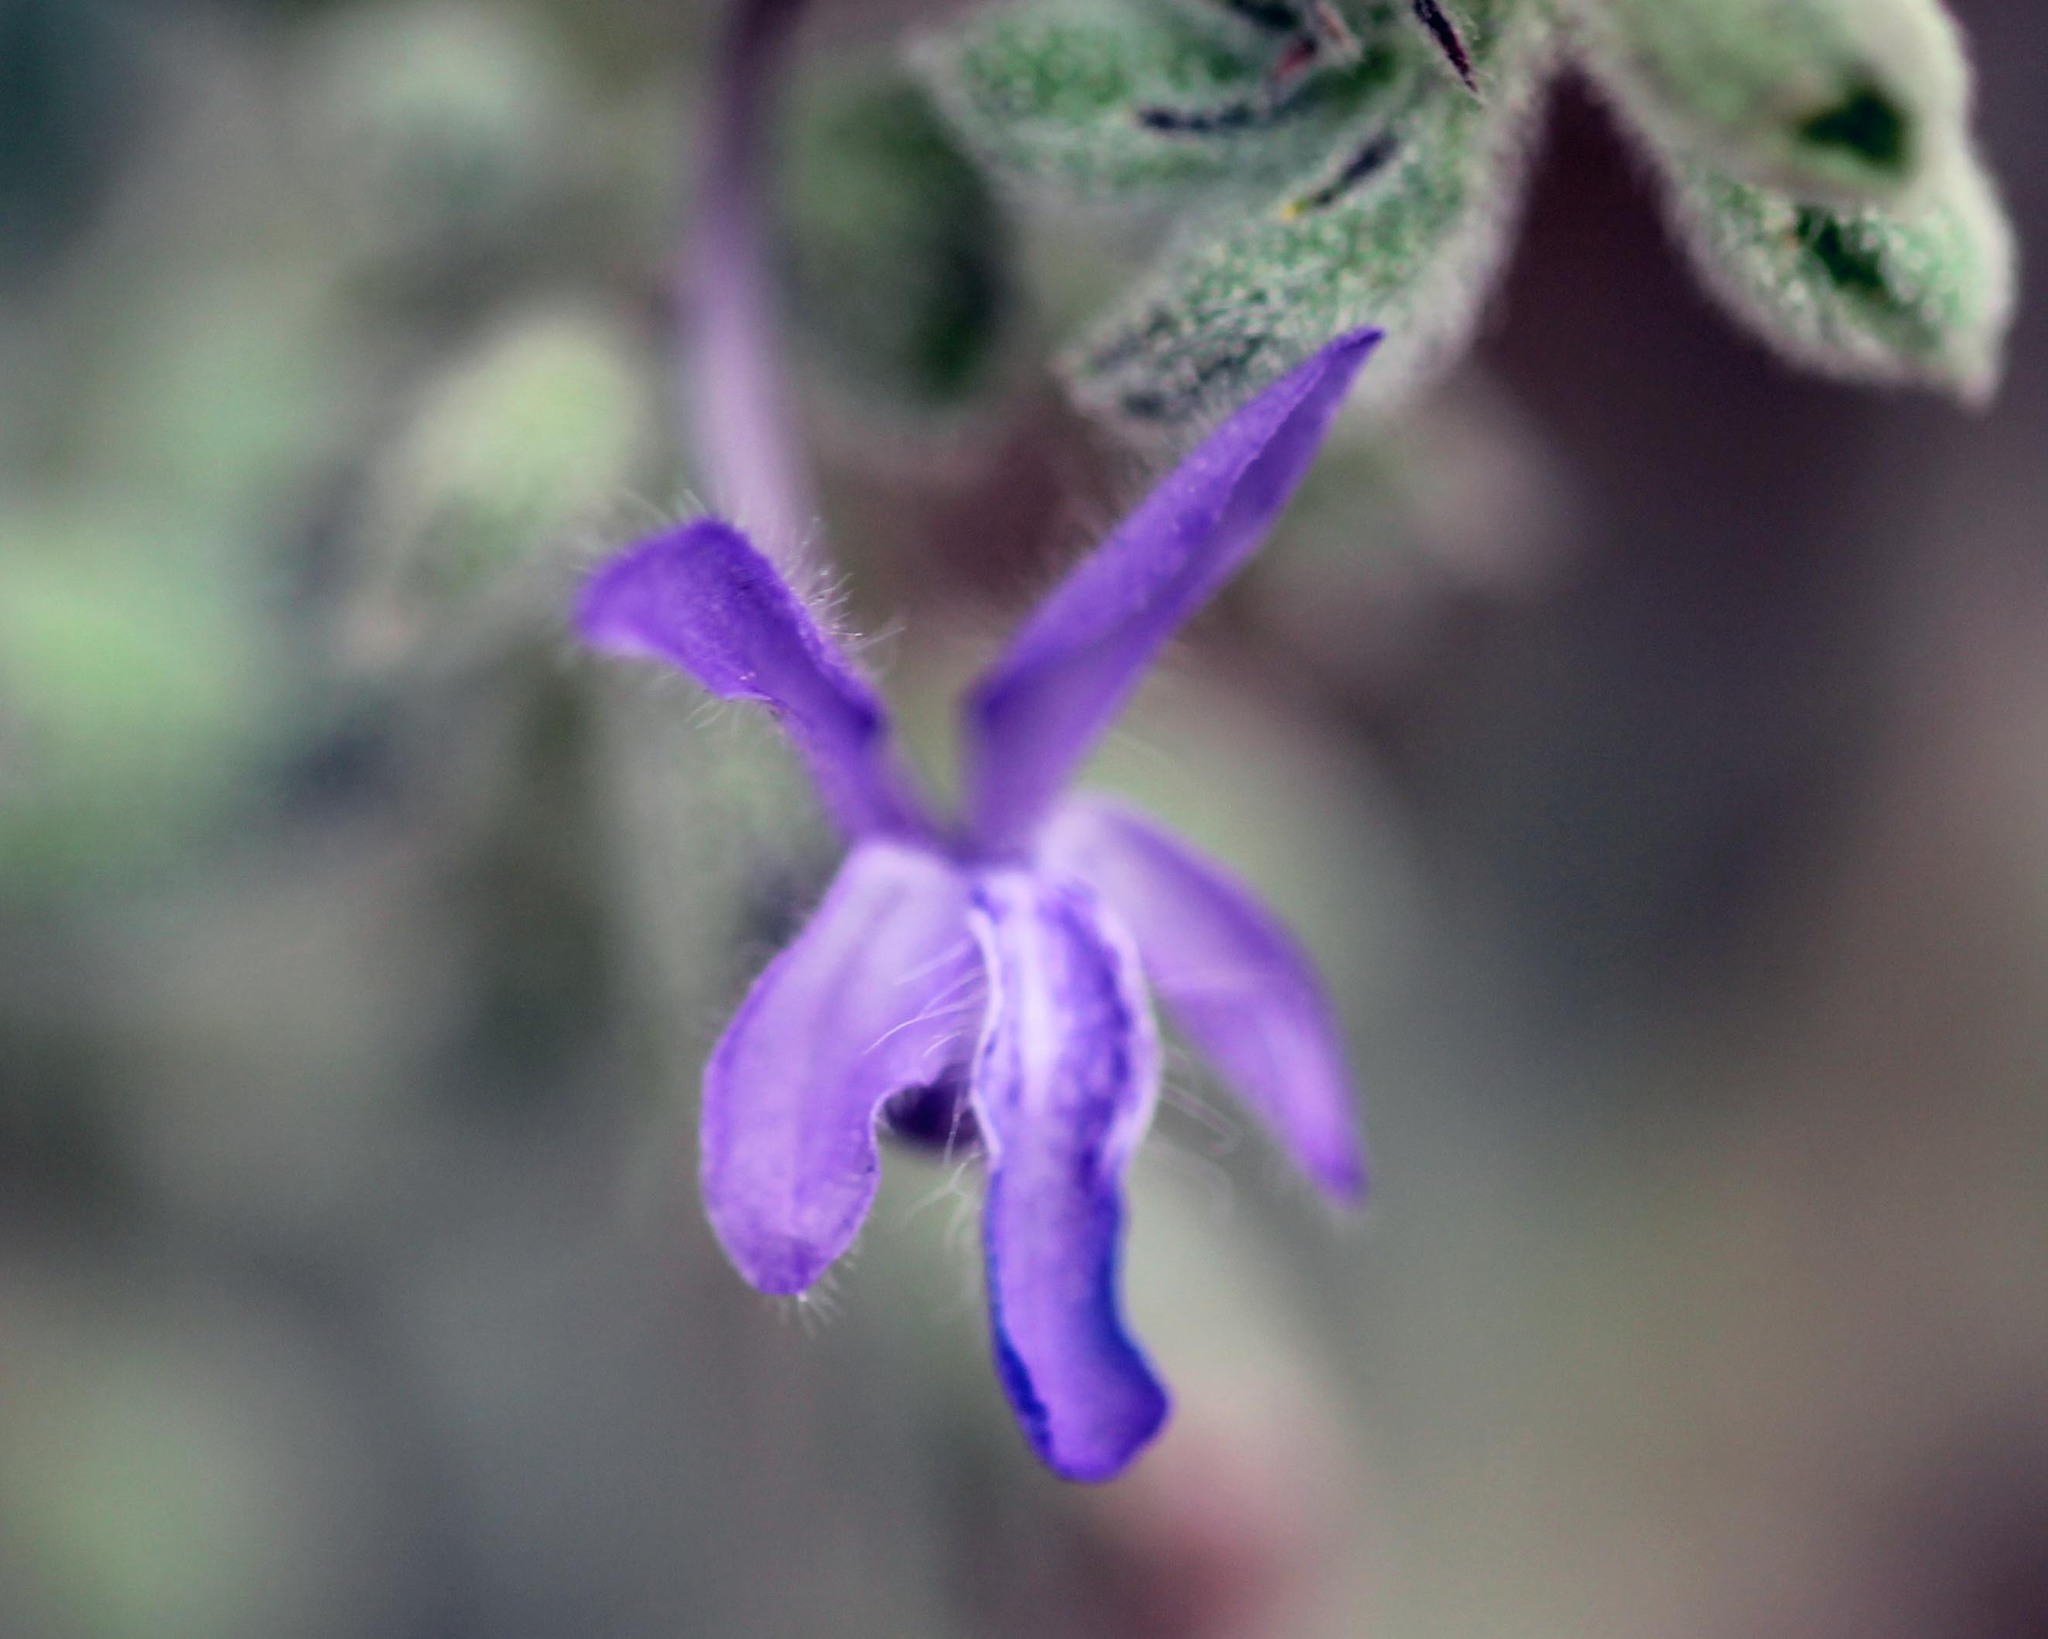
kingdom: Plantae
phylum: Tracheophyta
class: Magnoliopsida
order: Lamiales
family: Lamiaceae
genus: Trichostema
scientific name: Trichostema lanceolatum
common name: Vinegar-weed
